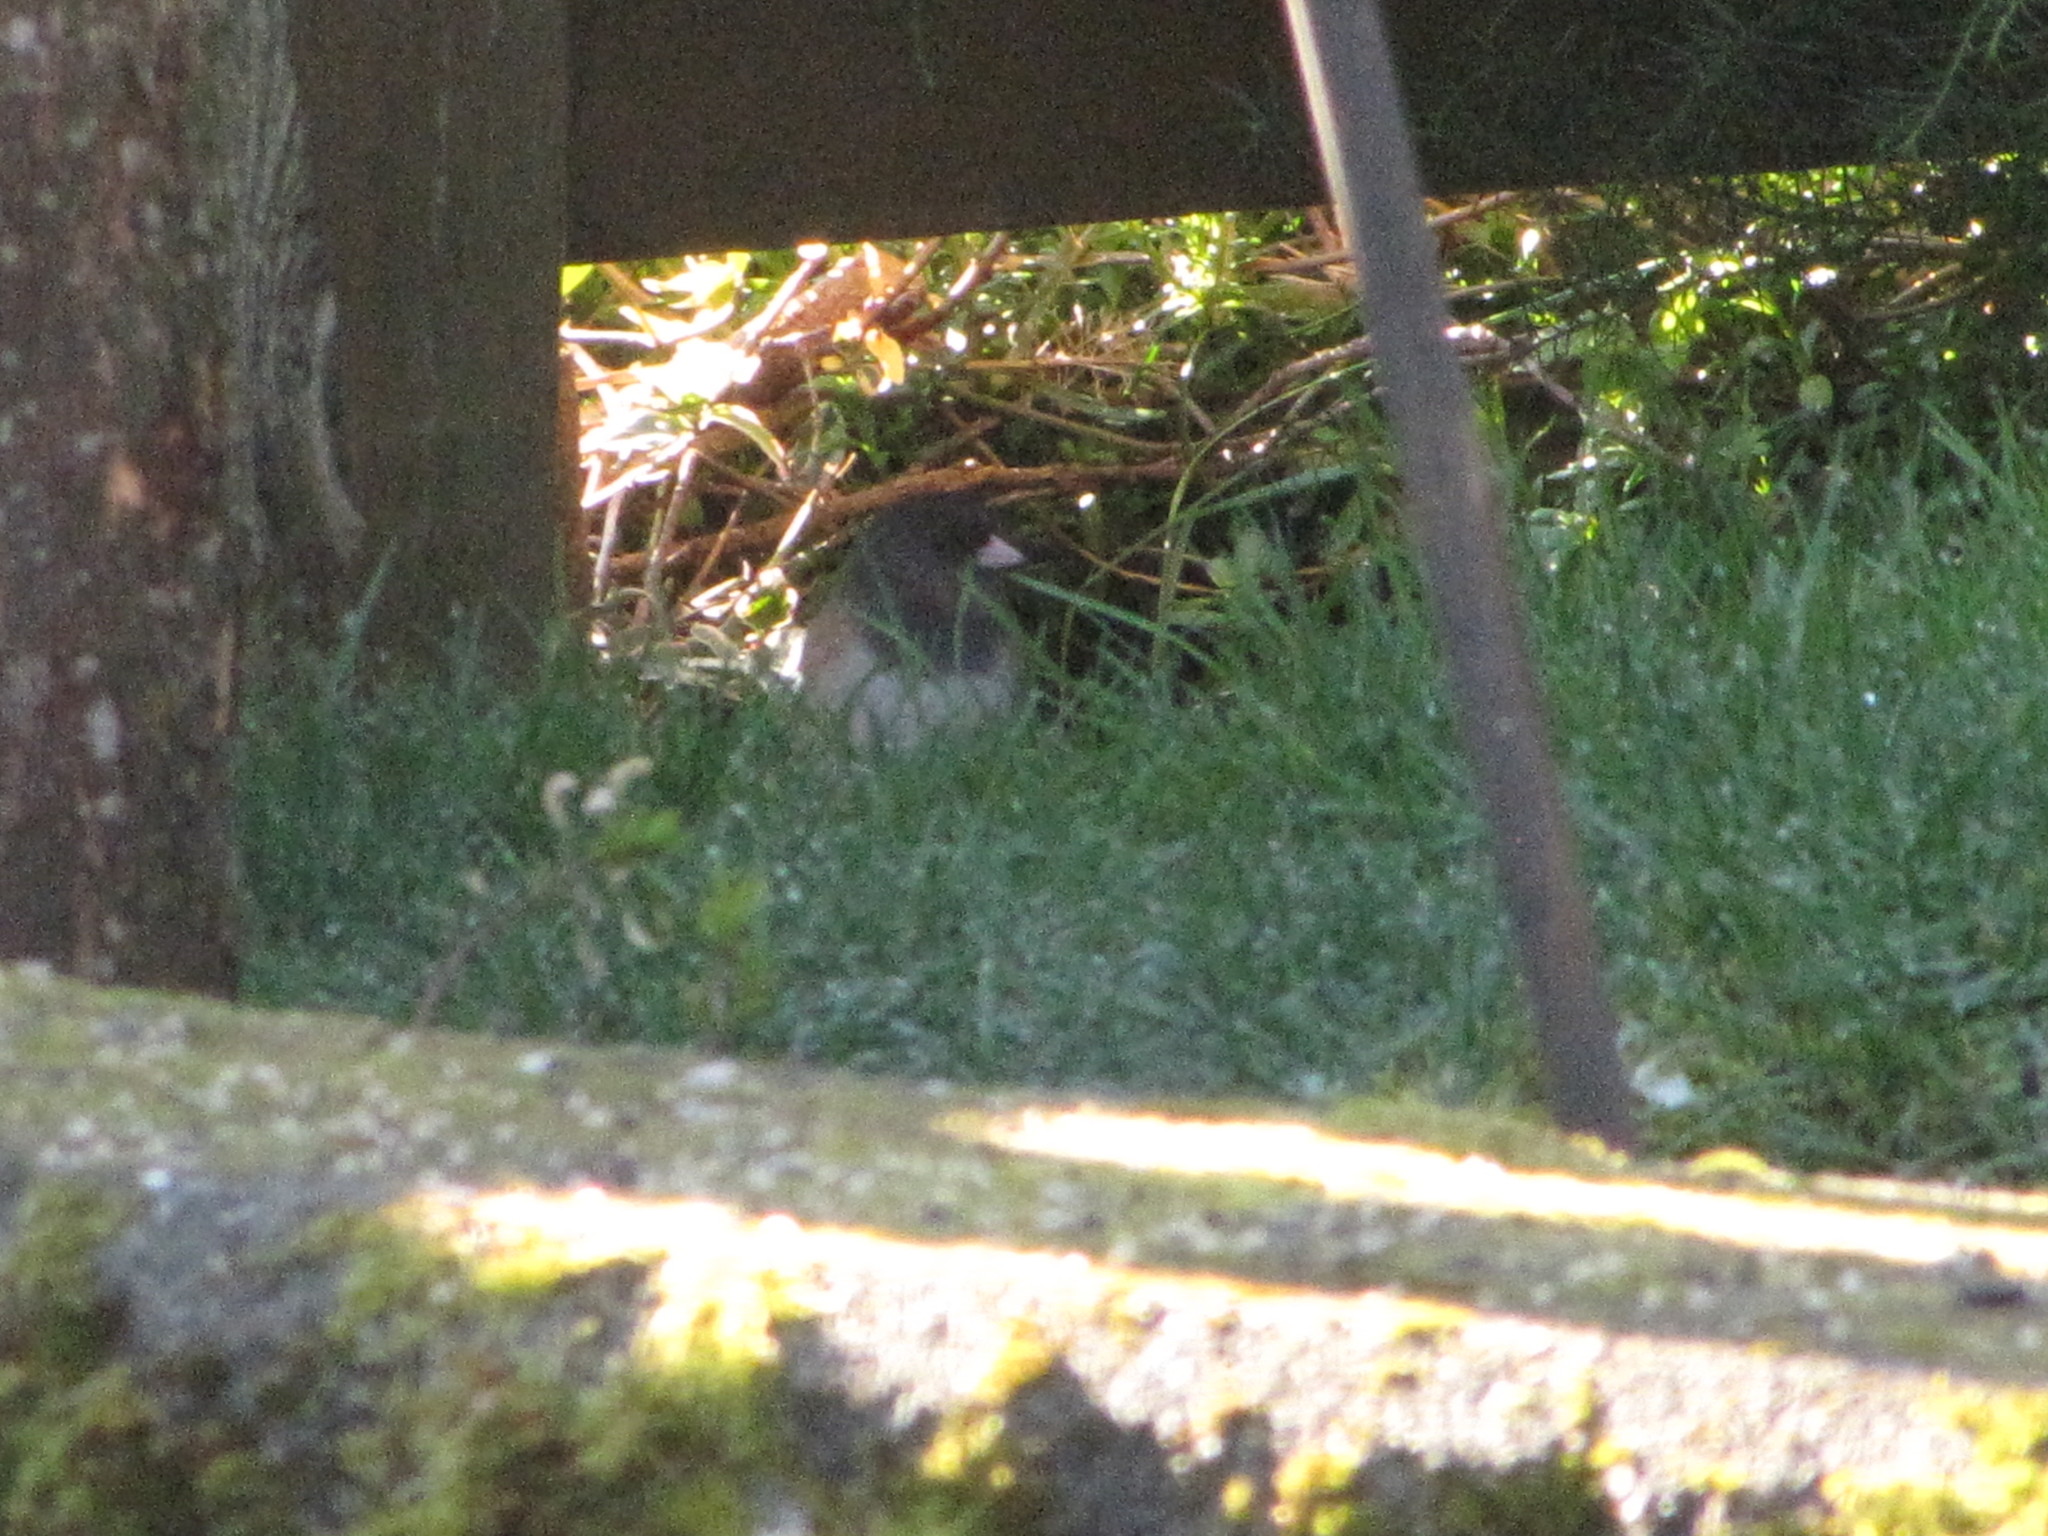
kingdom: Animalia
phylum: Chordata
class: Aves
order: Passeriformes
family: Passerellidae
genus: Junco
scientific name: Junco hyemalis
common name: Dark-eyed junco
